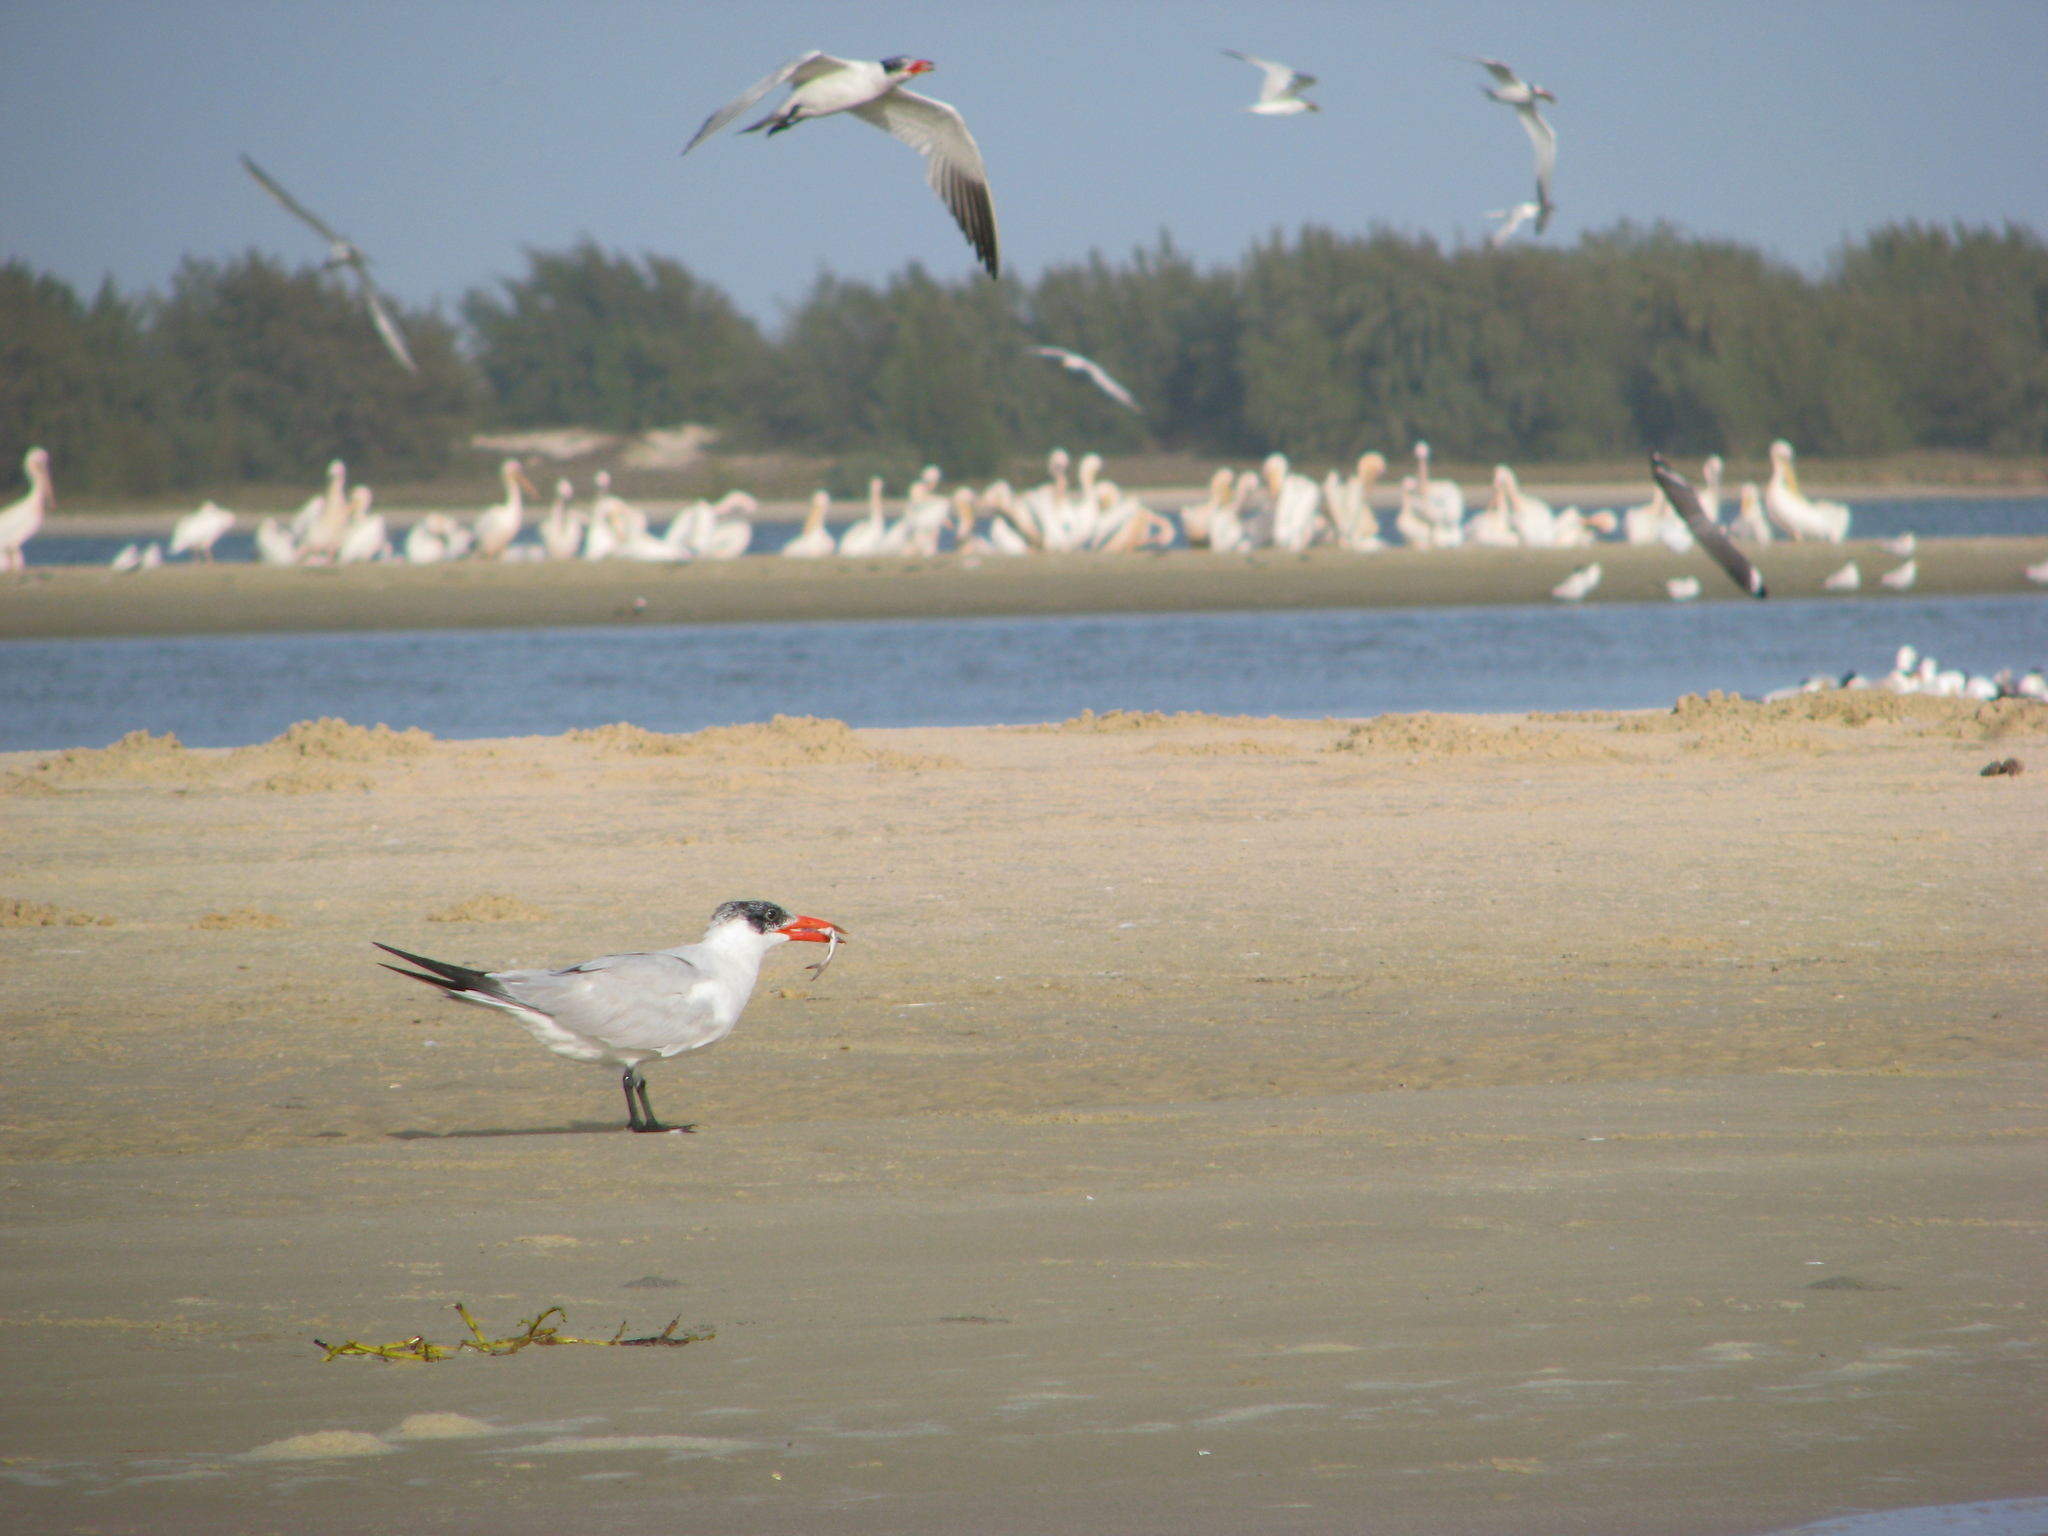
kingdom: Animalia
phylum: Chordata
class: Aves
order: Charadriiformes
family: Laridae
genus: Hydroprogne
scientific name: Hydroprogne caspia
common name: Caspian tern
